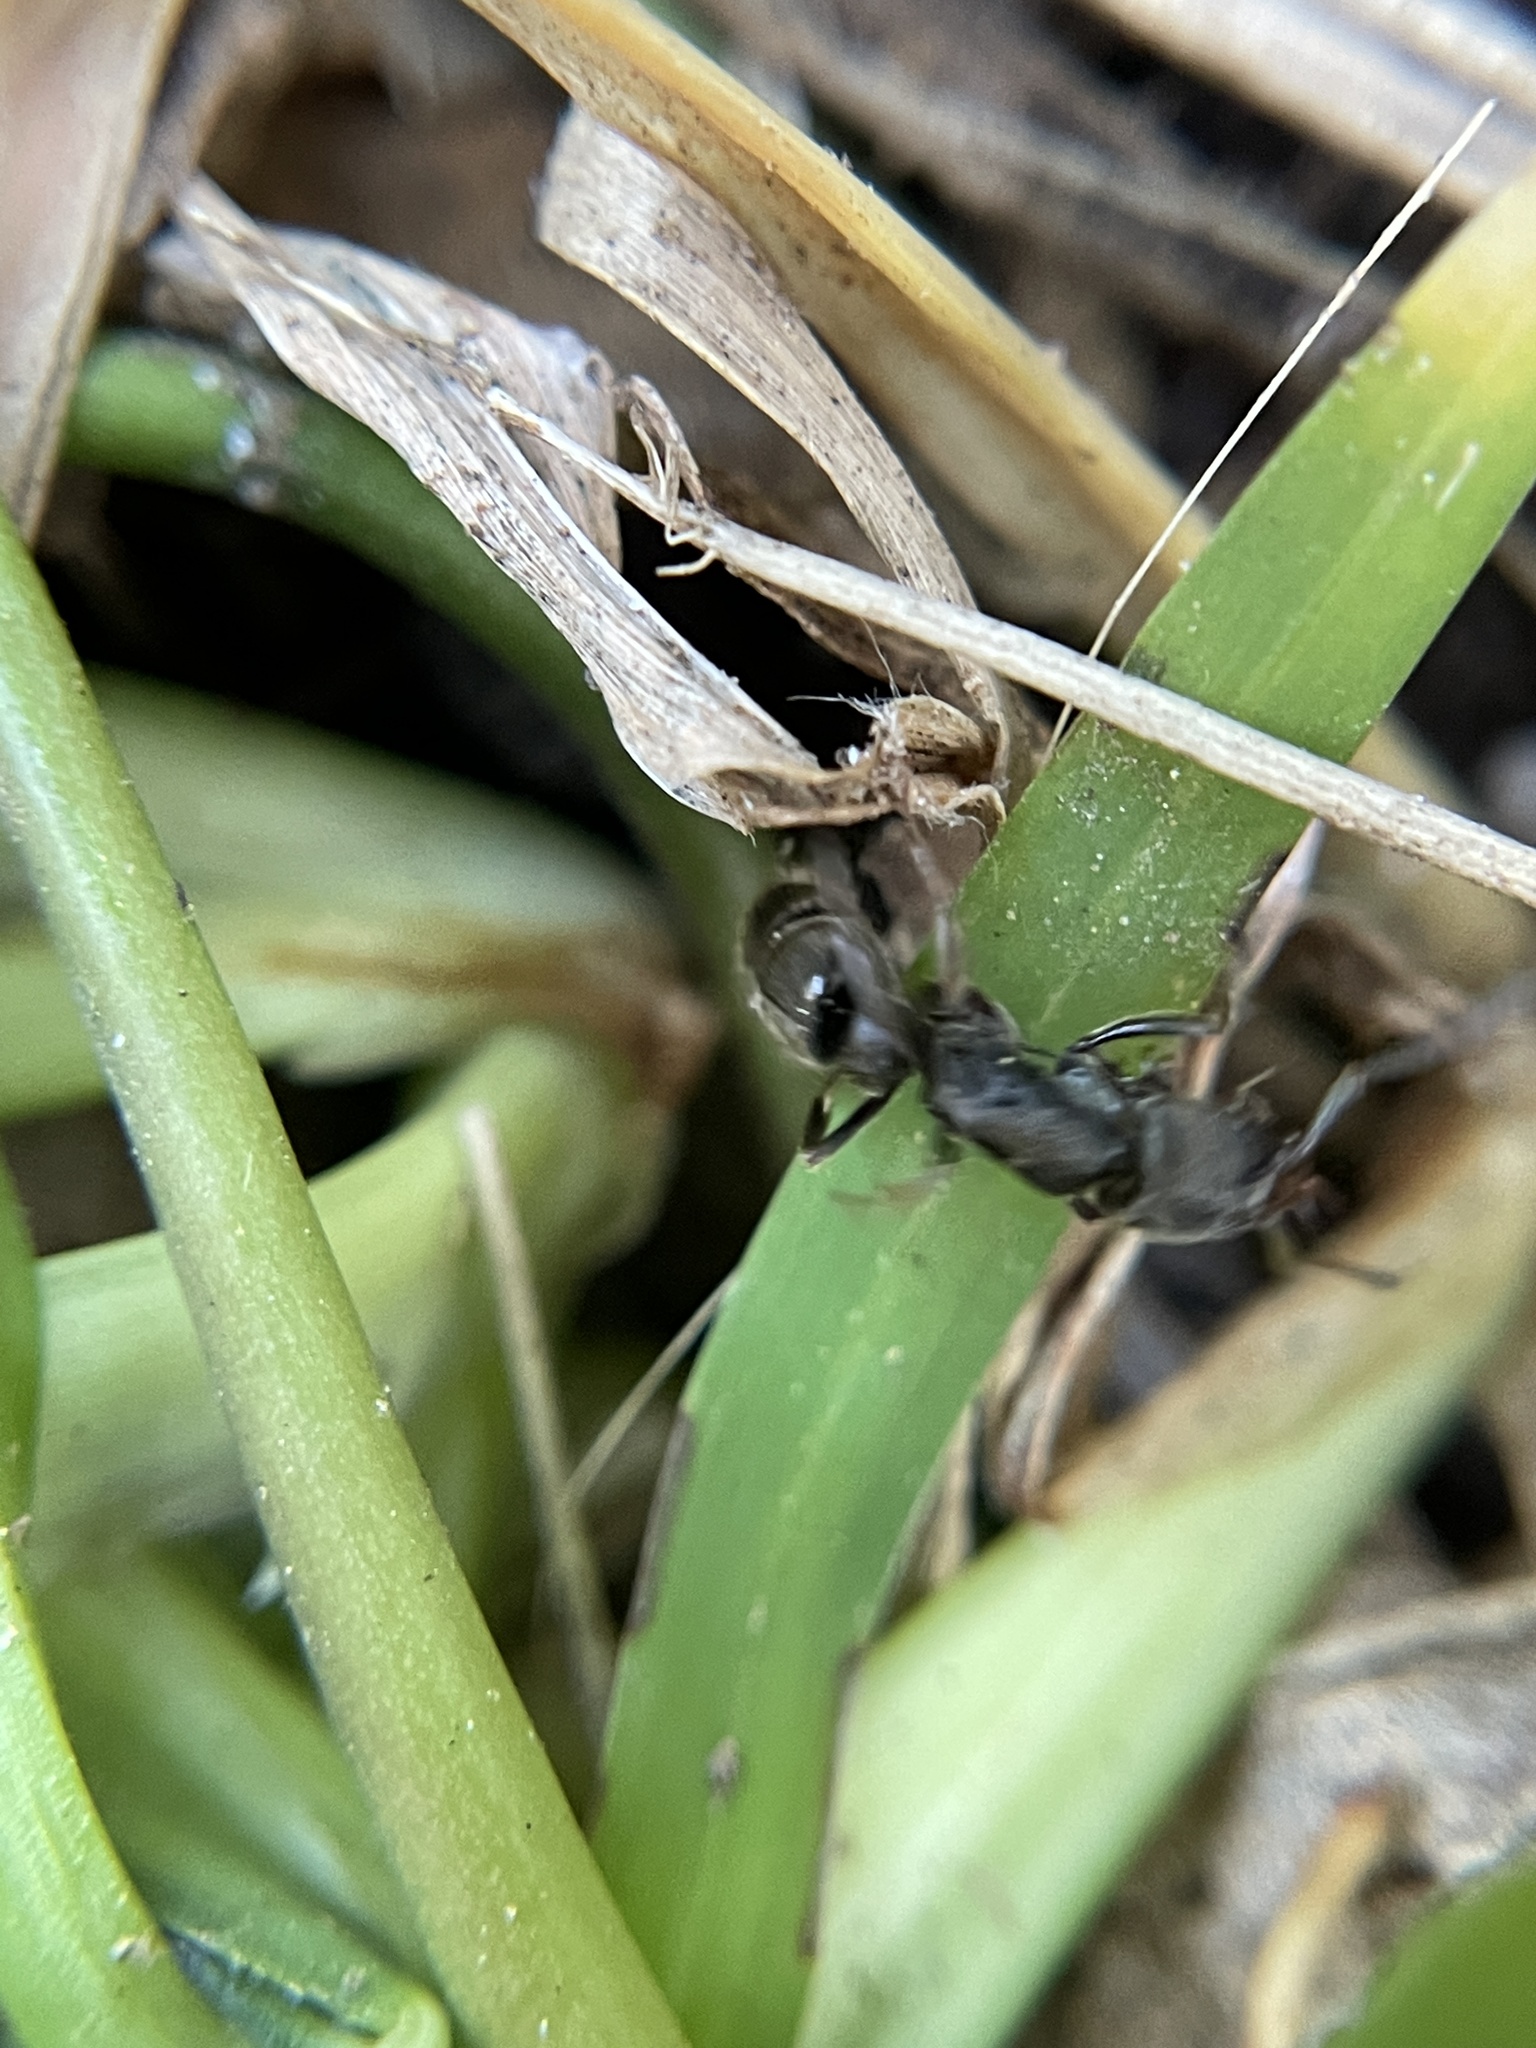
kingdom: Animalia
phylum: Arthropoda
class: Insecta
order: Hymenoptera
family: Formicidae
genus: Pachycondyla
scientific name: Pachycondyla harpax
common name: Ant
